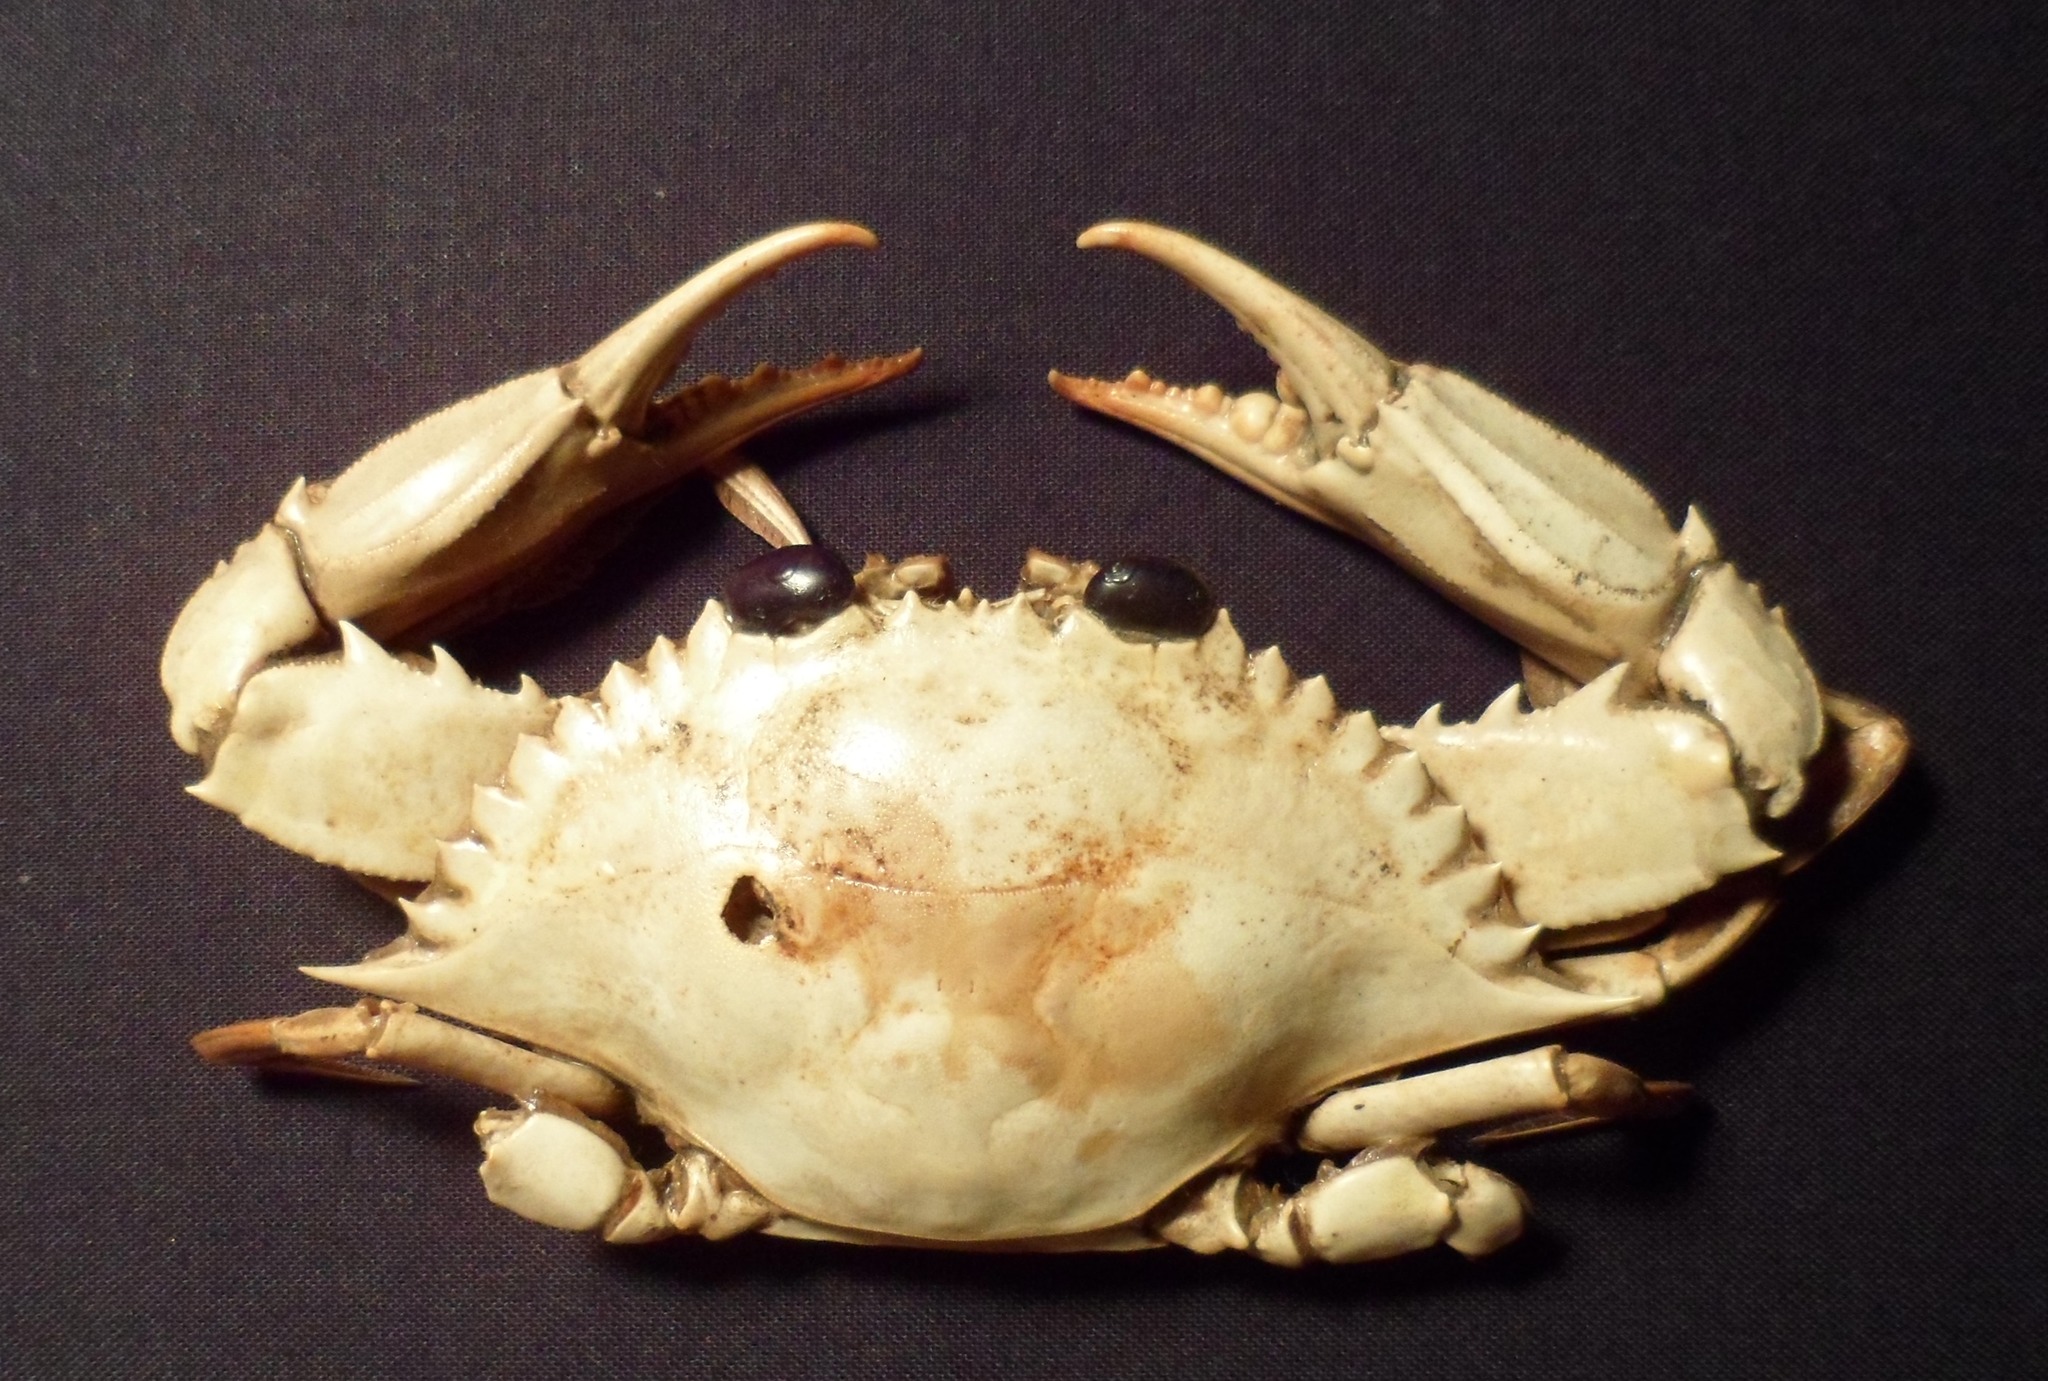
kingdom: Animalia
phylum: Arthropoda
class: Malacostraca
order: Decapoda
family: Portunidae
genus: Callinectes
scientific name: Callinectes arcuatus
